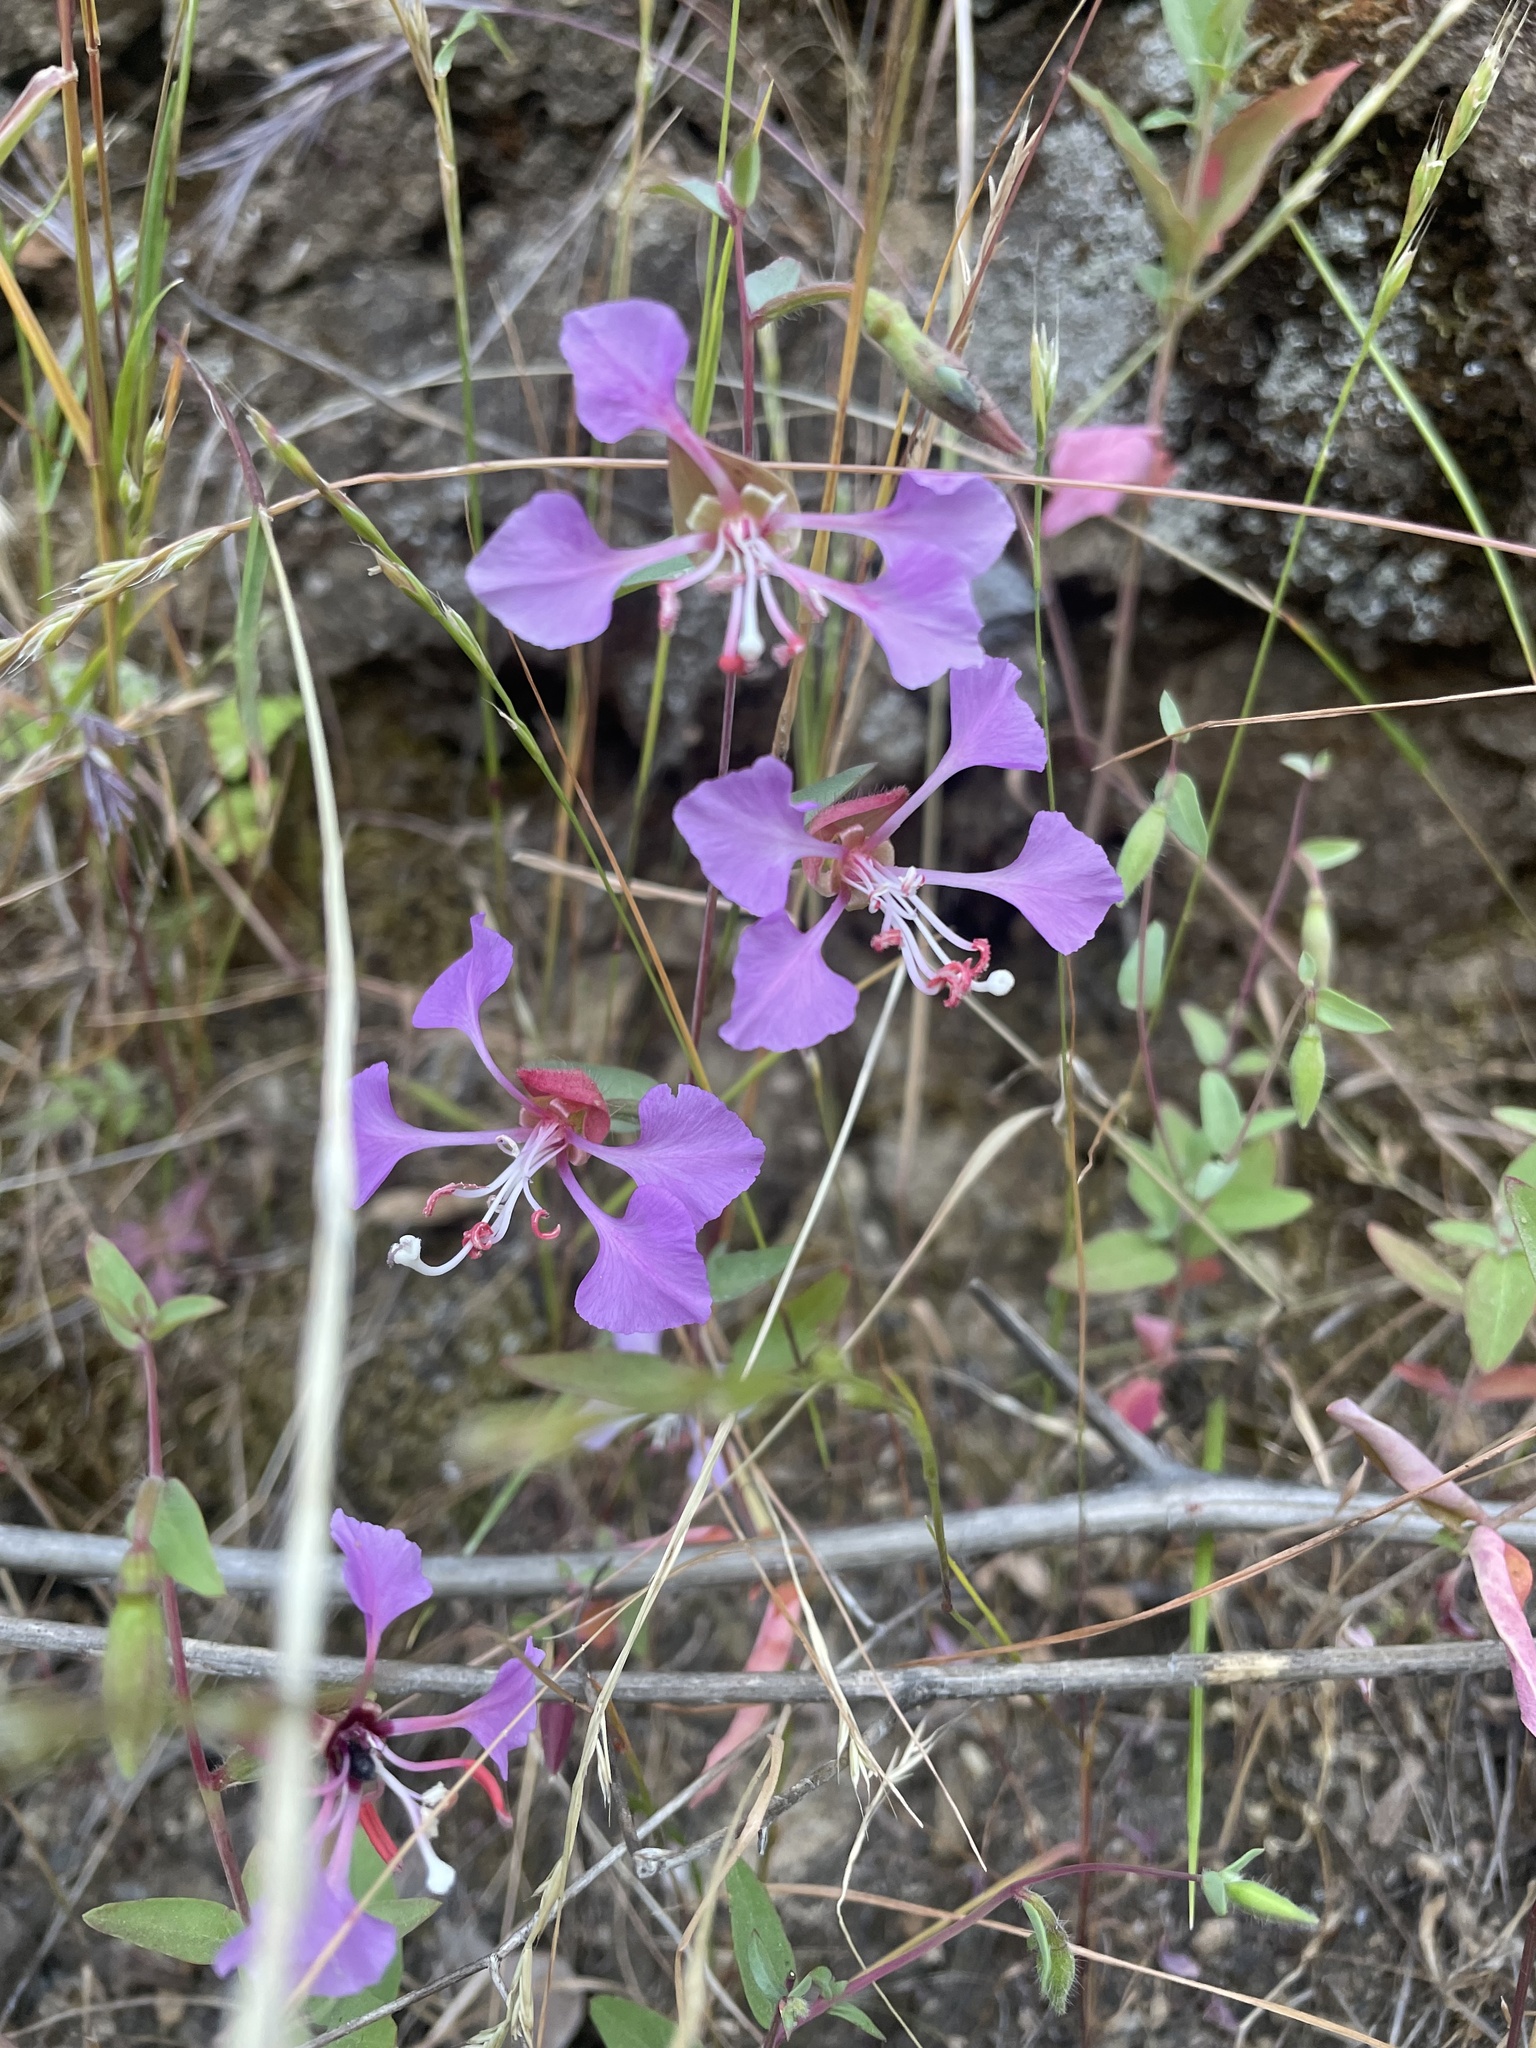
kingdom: Plantae
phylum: Tracheophyta
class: Magnoliopsida
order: Myrtales
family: Onagraceae
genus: Clarkia
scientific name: Clarkia unguiculata
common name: Clarkia
